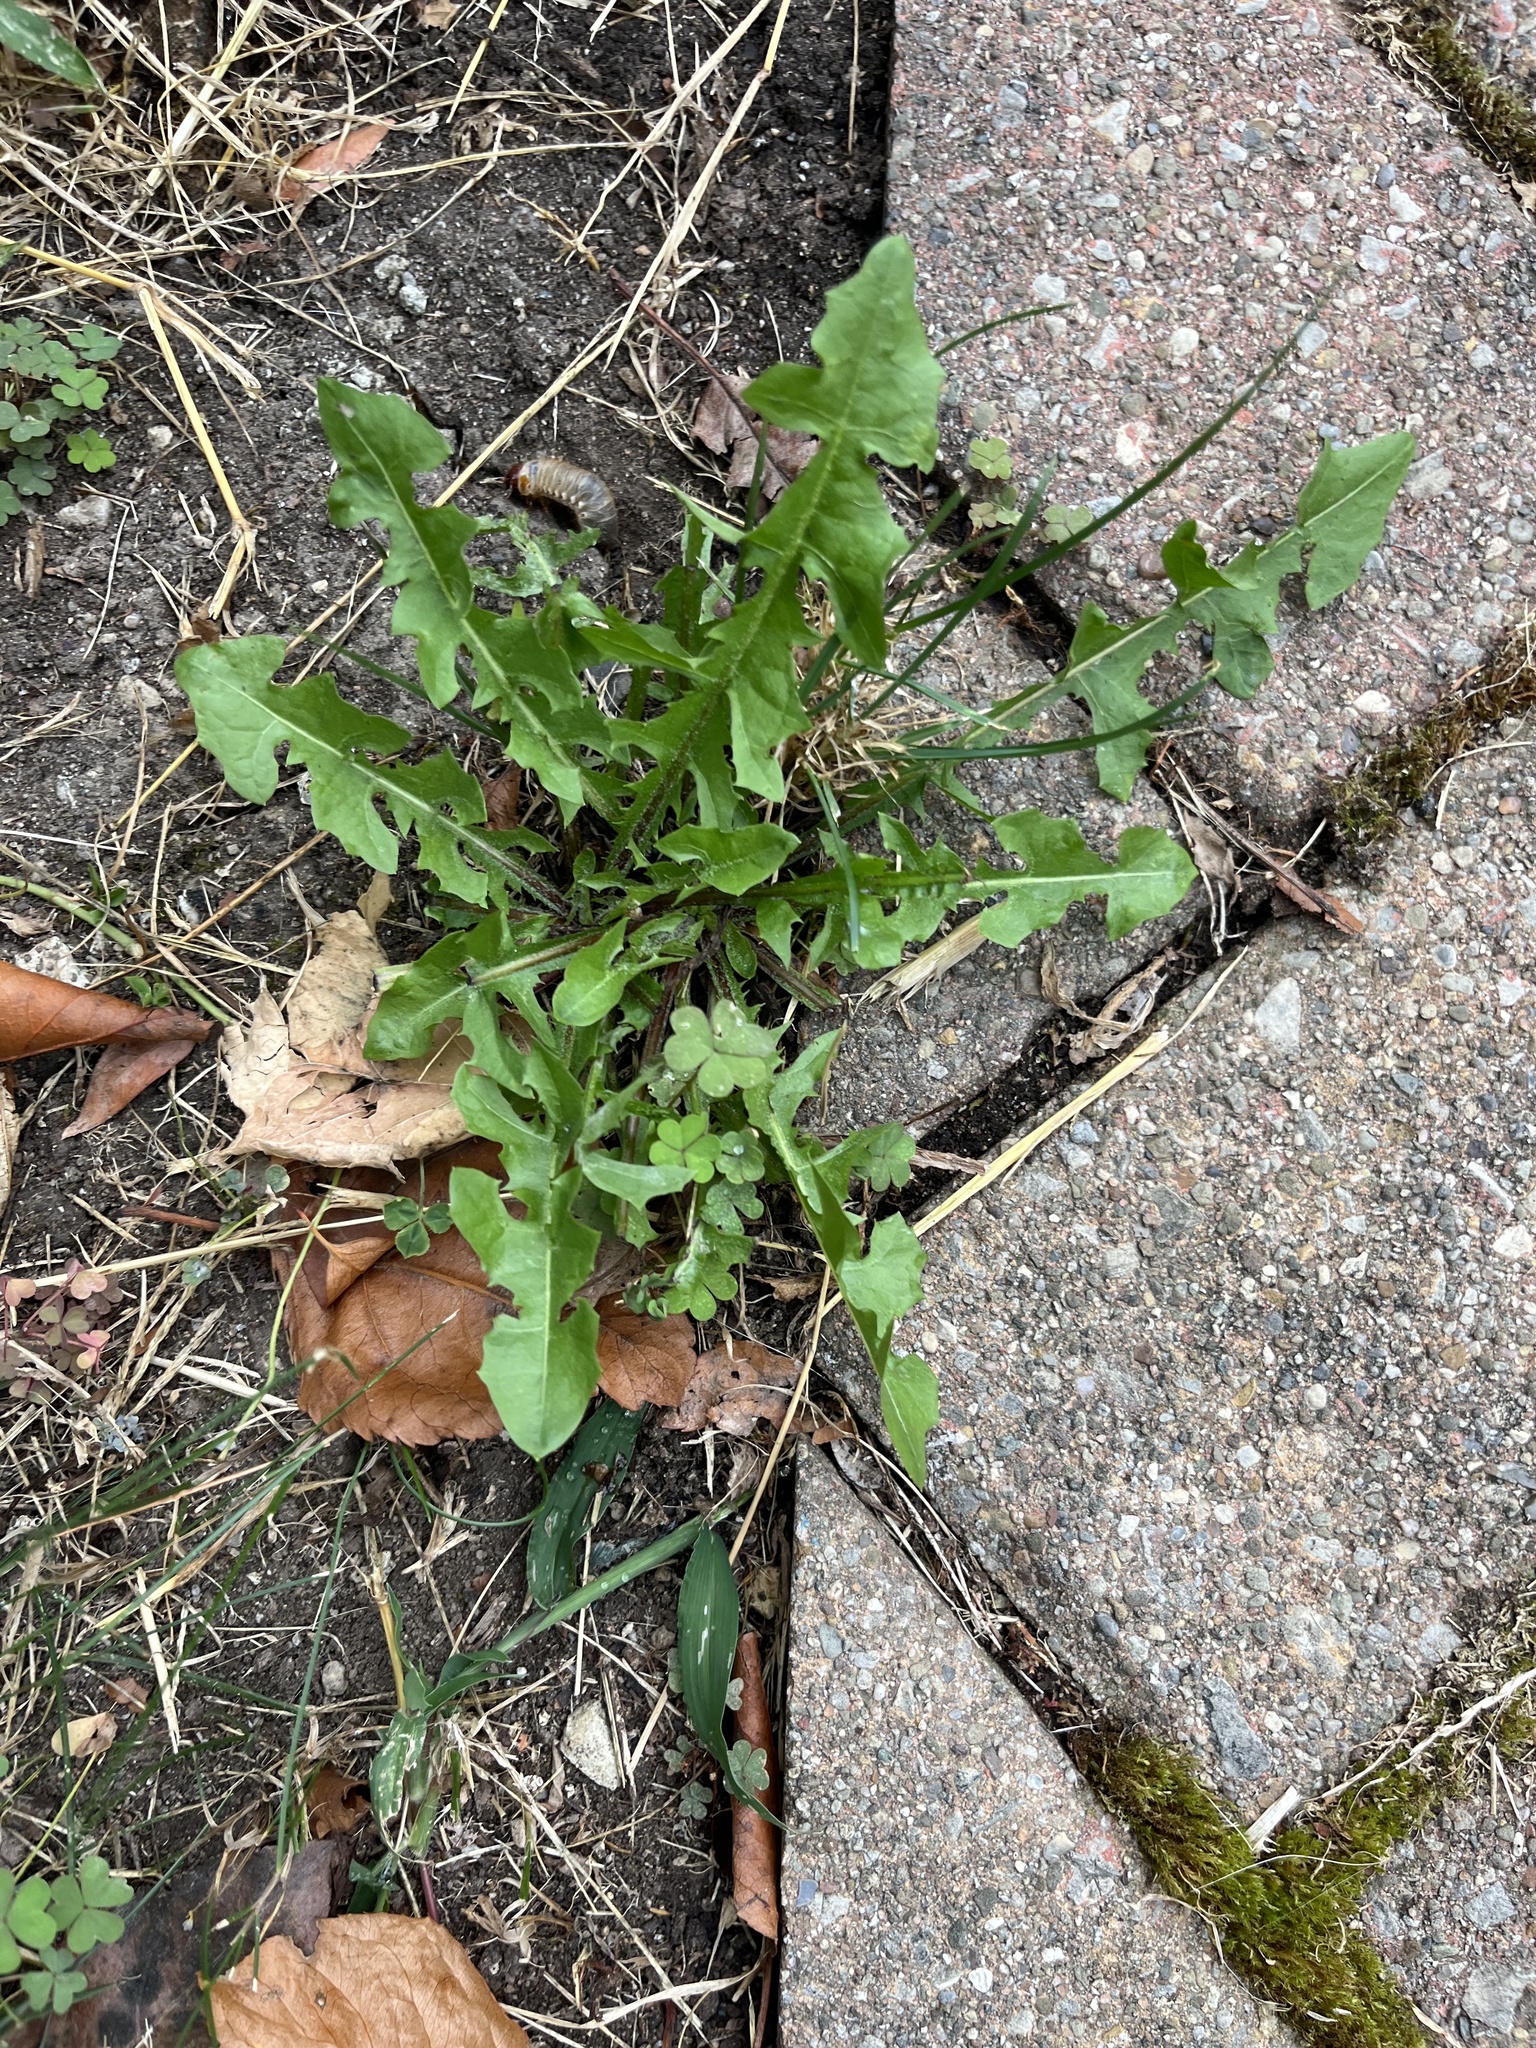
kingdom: Plantae
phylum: Tracheophyta
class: Magnoliopsida
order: Asterales
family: Asteraceae
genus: Taraxacum
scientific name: Taraxacum officinale
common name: Common dandelion
